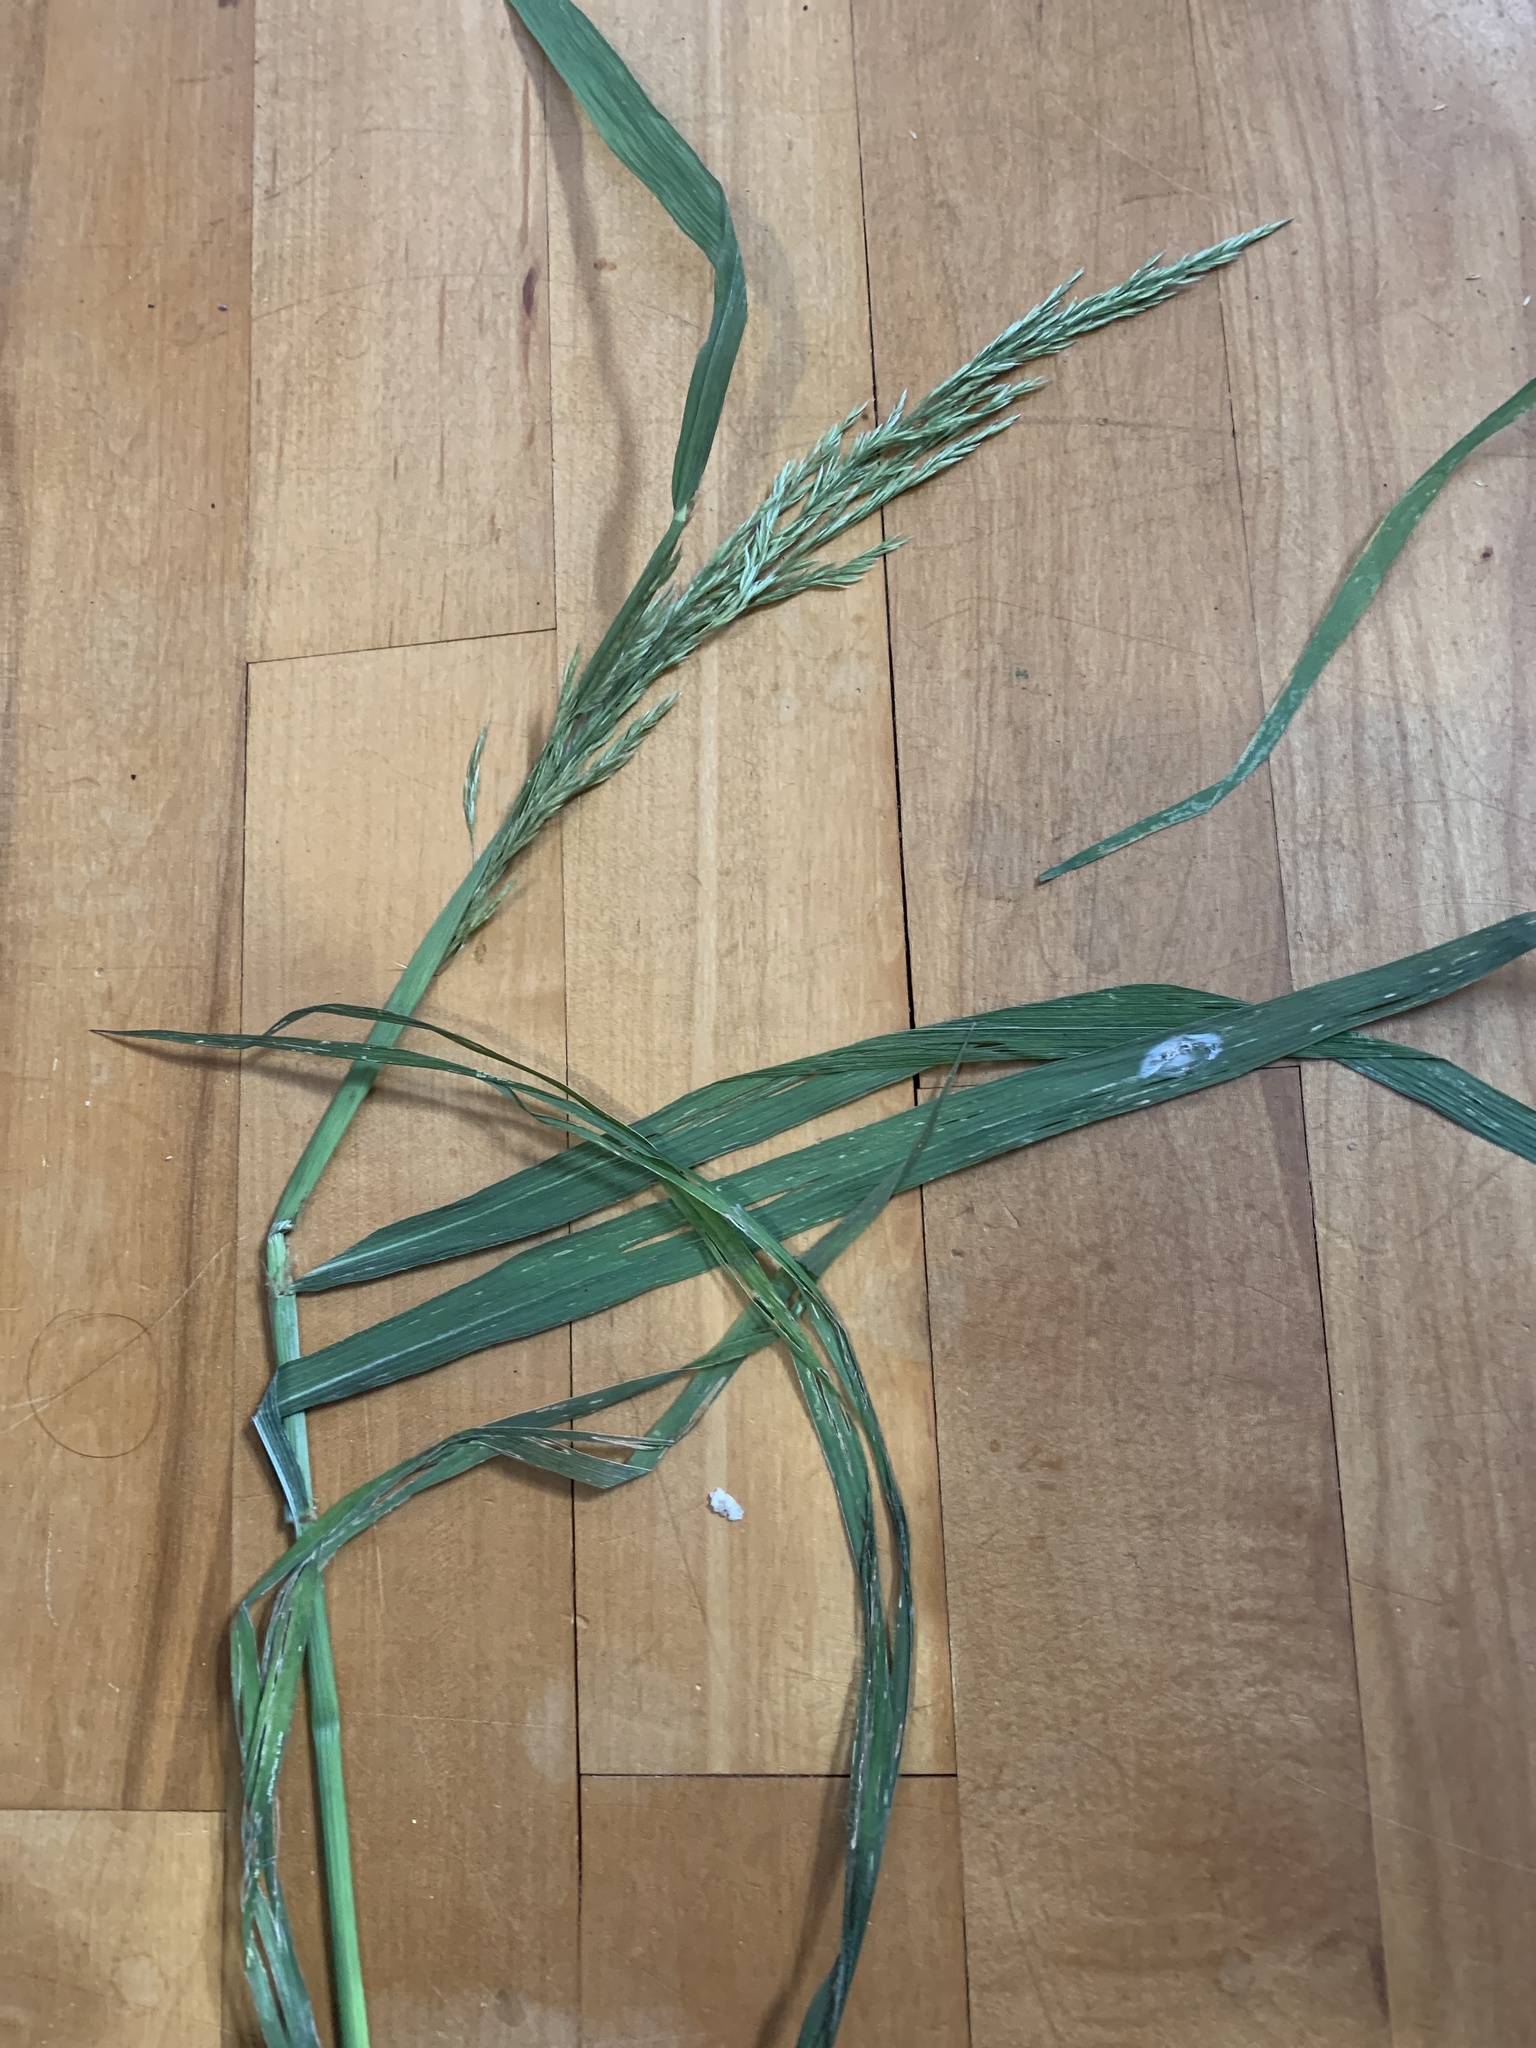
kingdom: Plantae
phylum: Tracheophyta
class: Liliopsida
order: Poales
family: Poaceae
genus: Cinna
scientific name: Cinna arundinacea
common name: Stout woodreed
